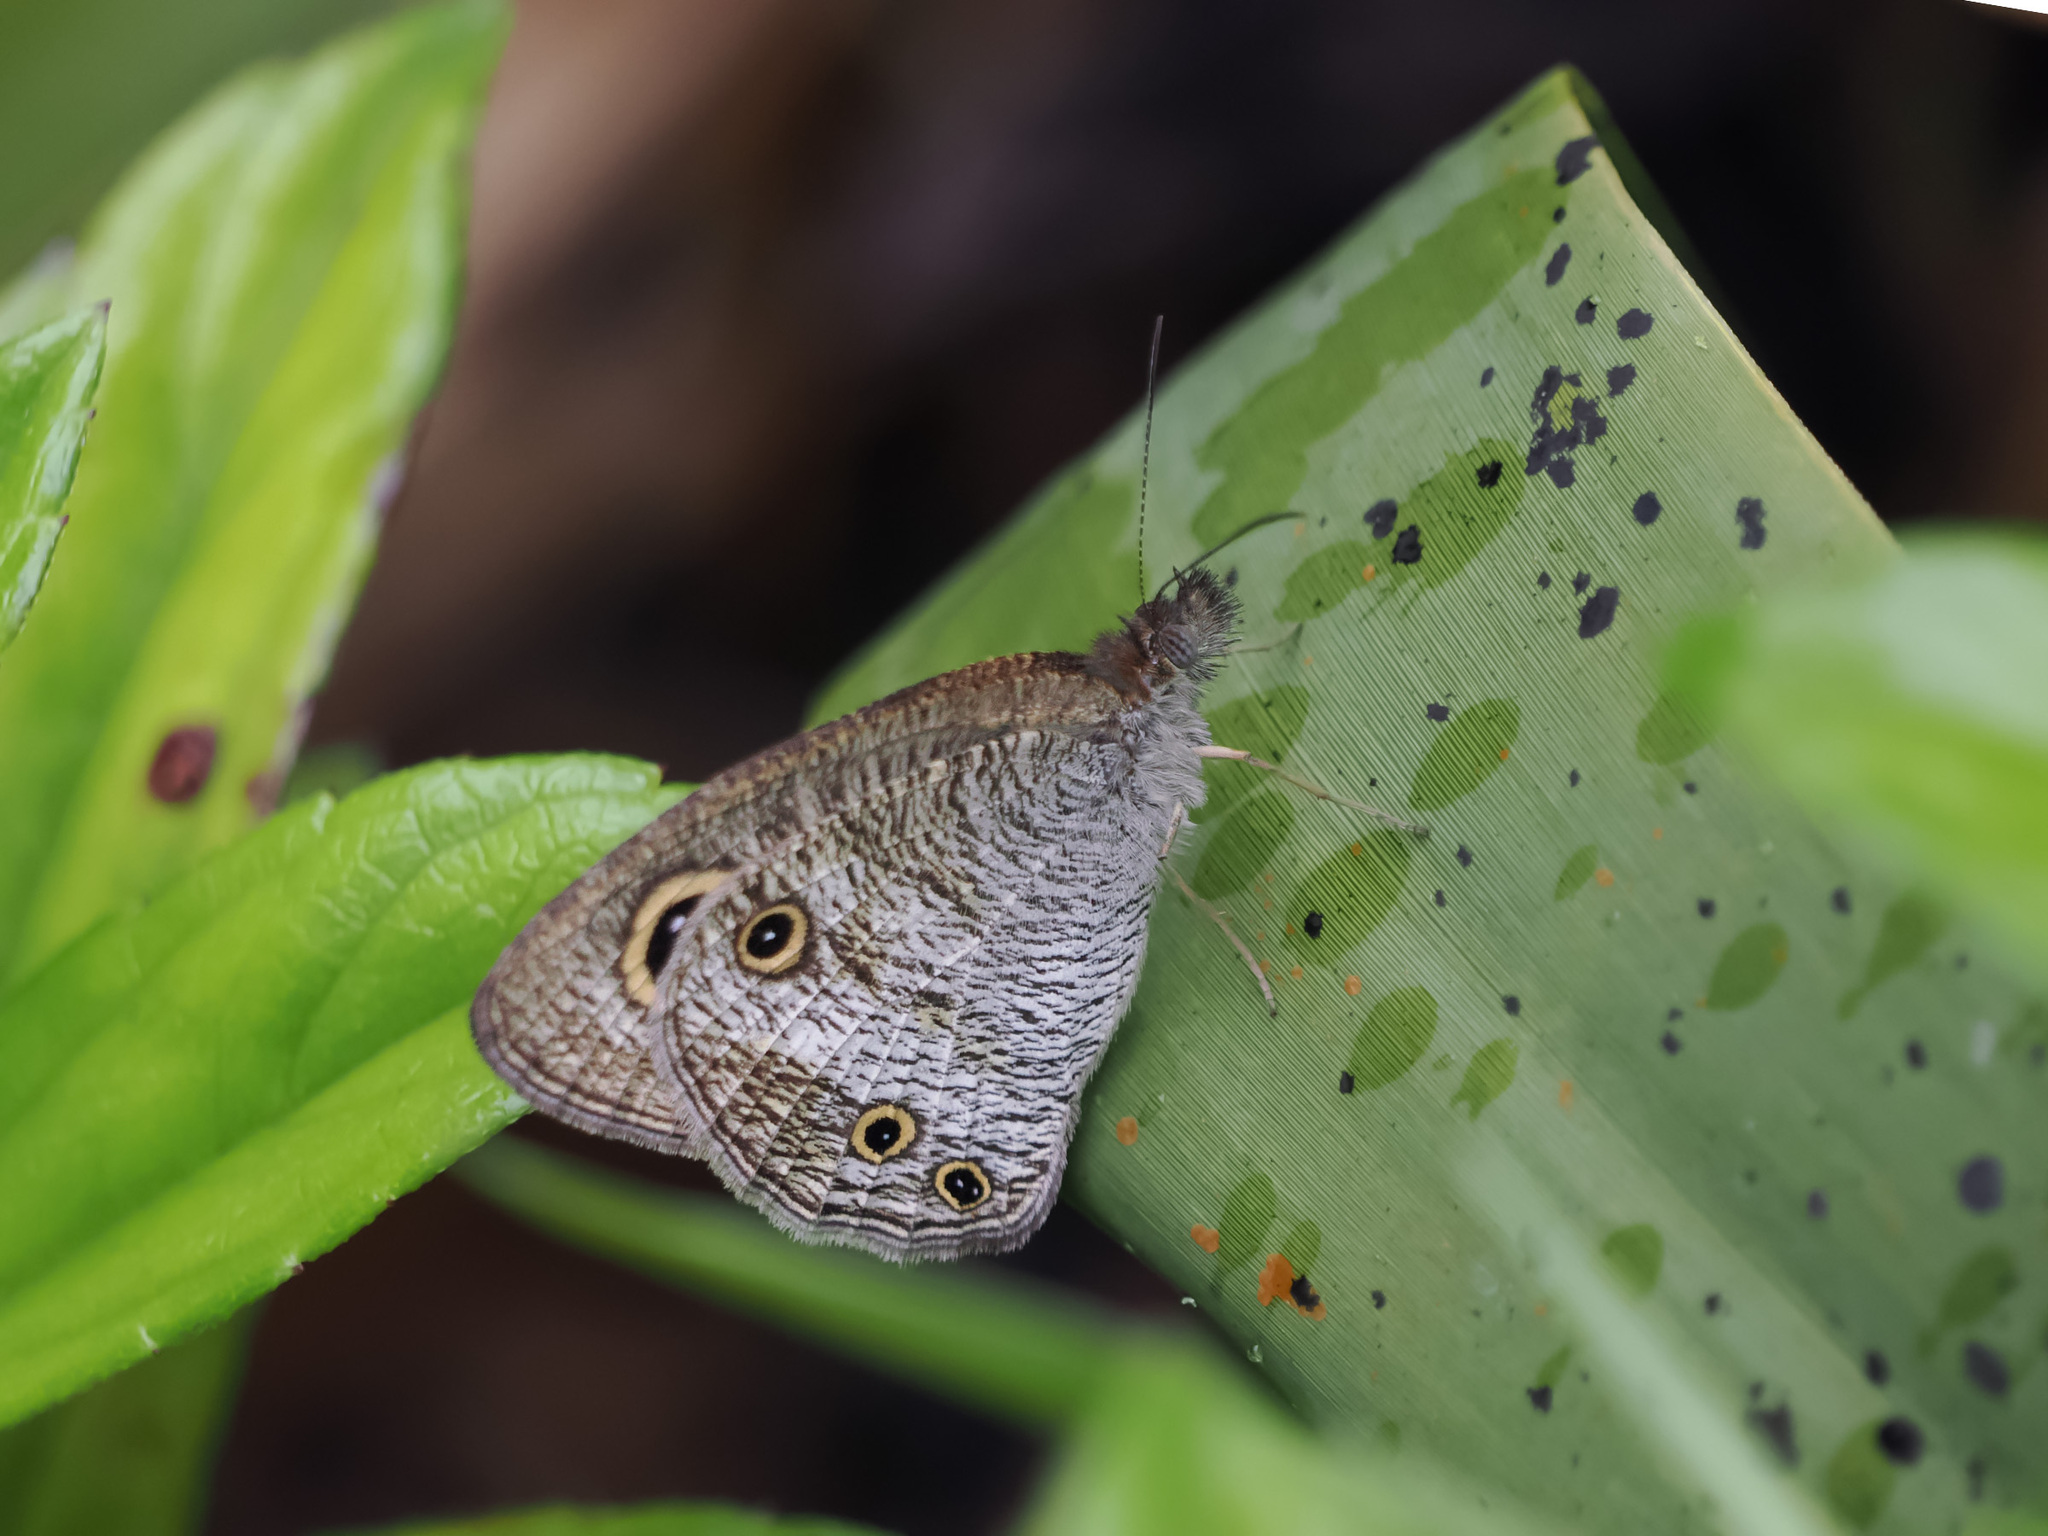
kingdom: Animalia
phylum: Arthropoda
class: Insecta
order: Lepidoptera
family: Nymphalidae
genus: Ypthima
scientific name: Ypthima pandocus
